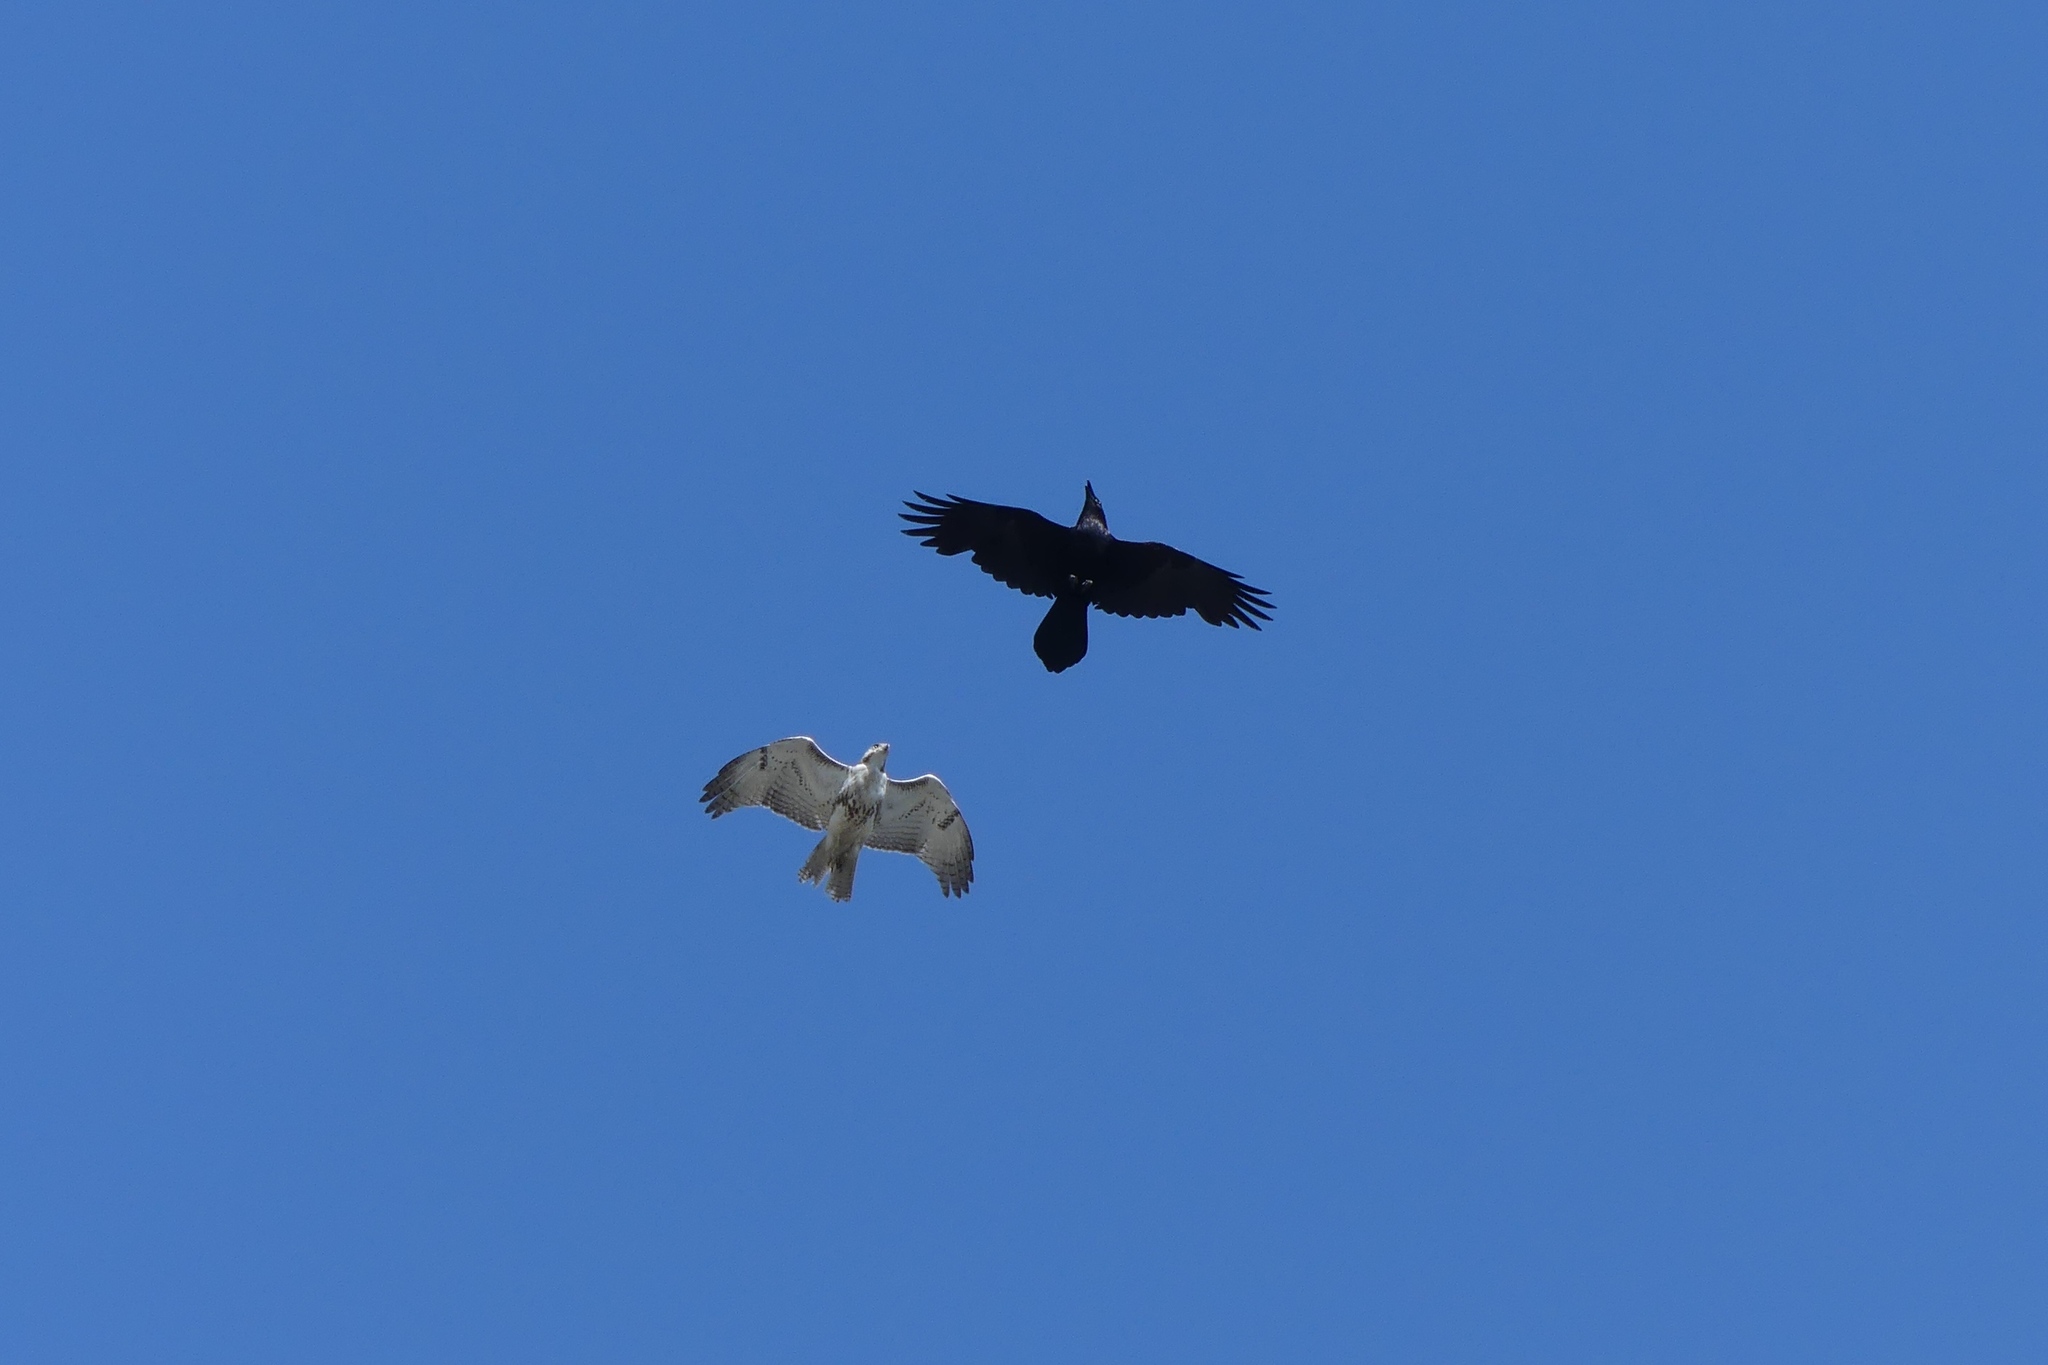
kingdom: Animalia
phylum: Chordata
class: Aves
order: Passeriformes
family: Corvidae
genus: Corvus
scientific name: Corvus corax
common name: Common raven
